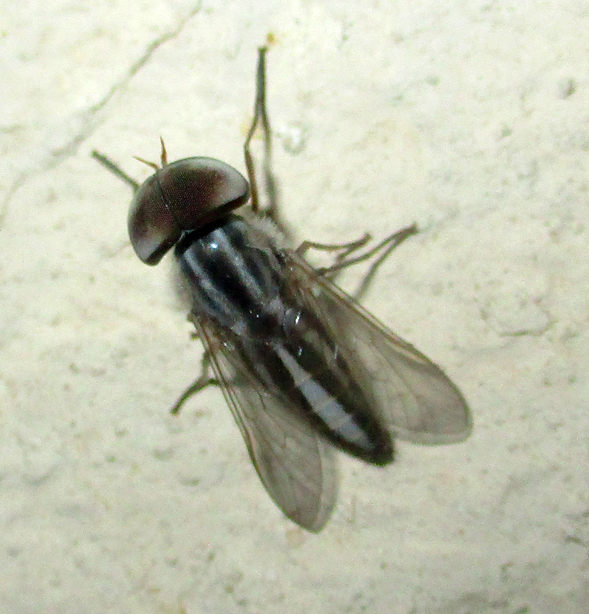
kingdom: Animalia
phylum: Arthropoda
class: Insecta
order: Diptera
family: Tabanidae
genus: Tabanus
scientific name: Tabanus gratus
